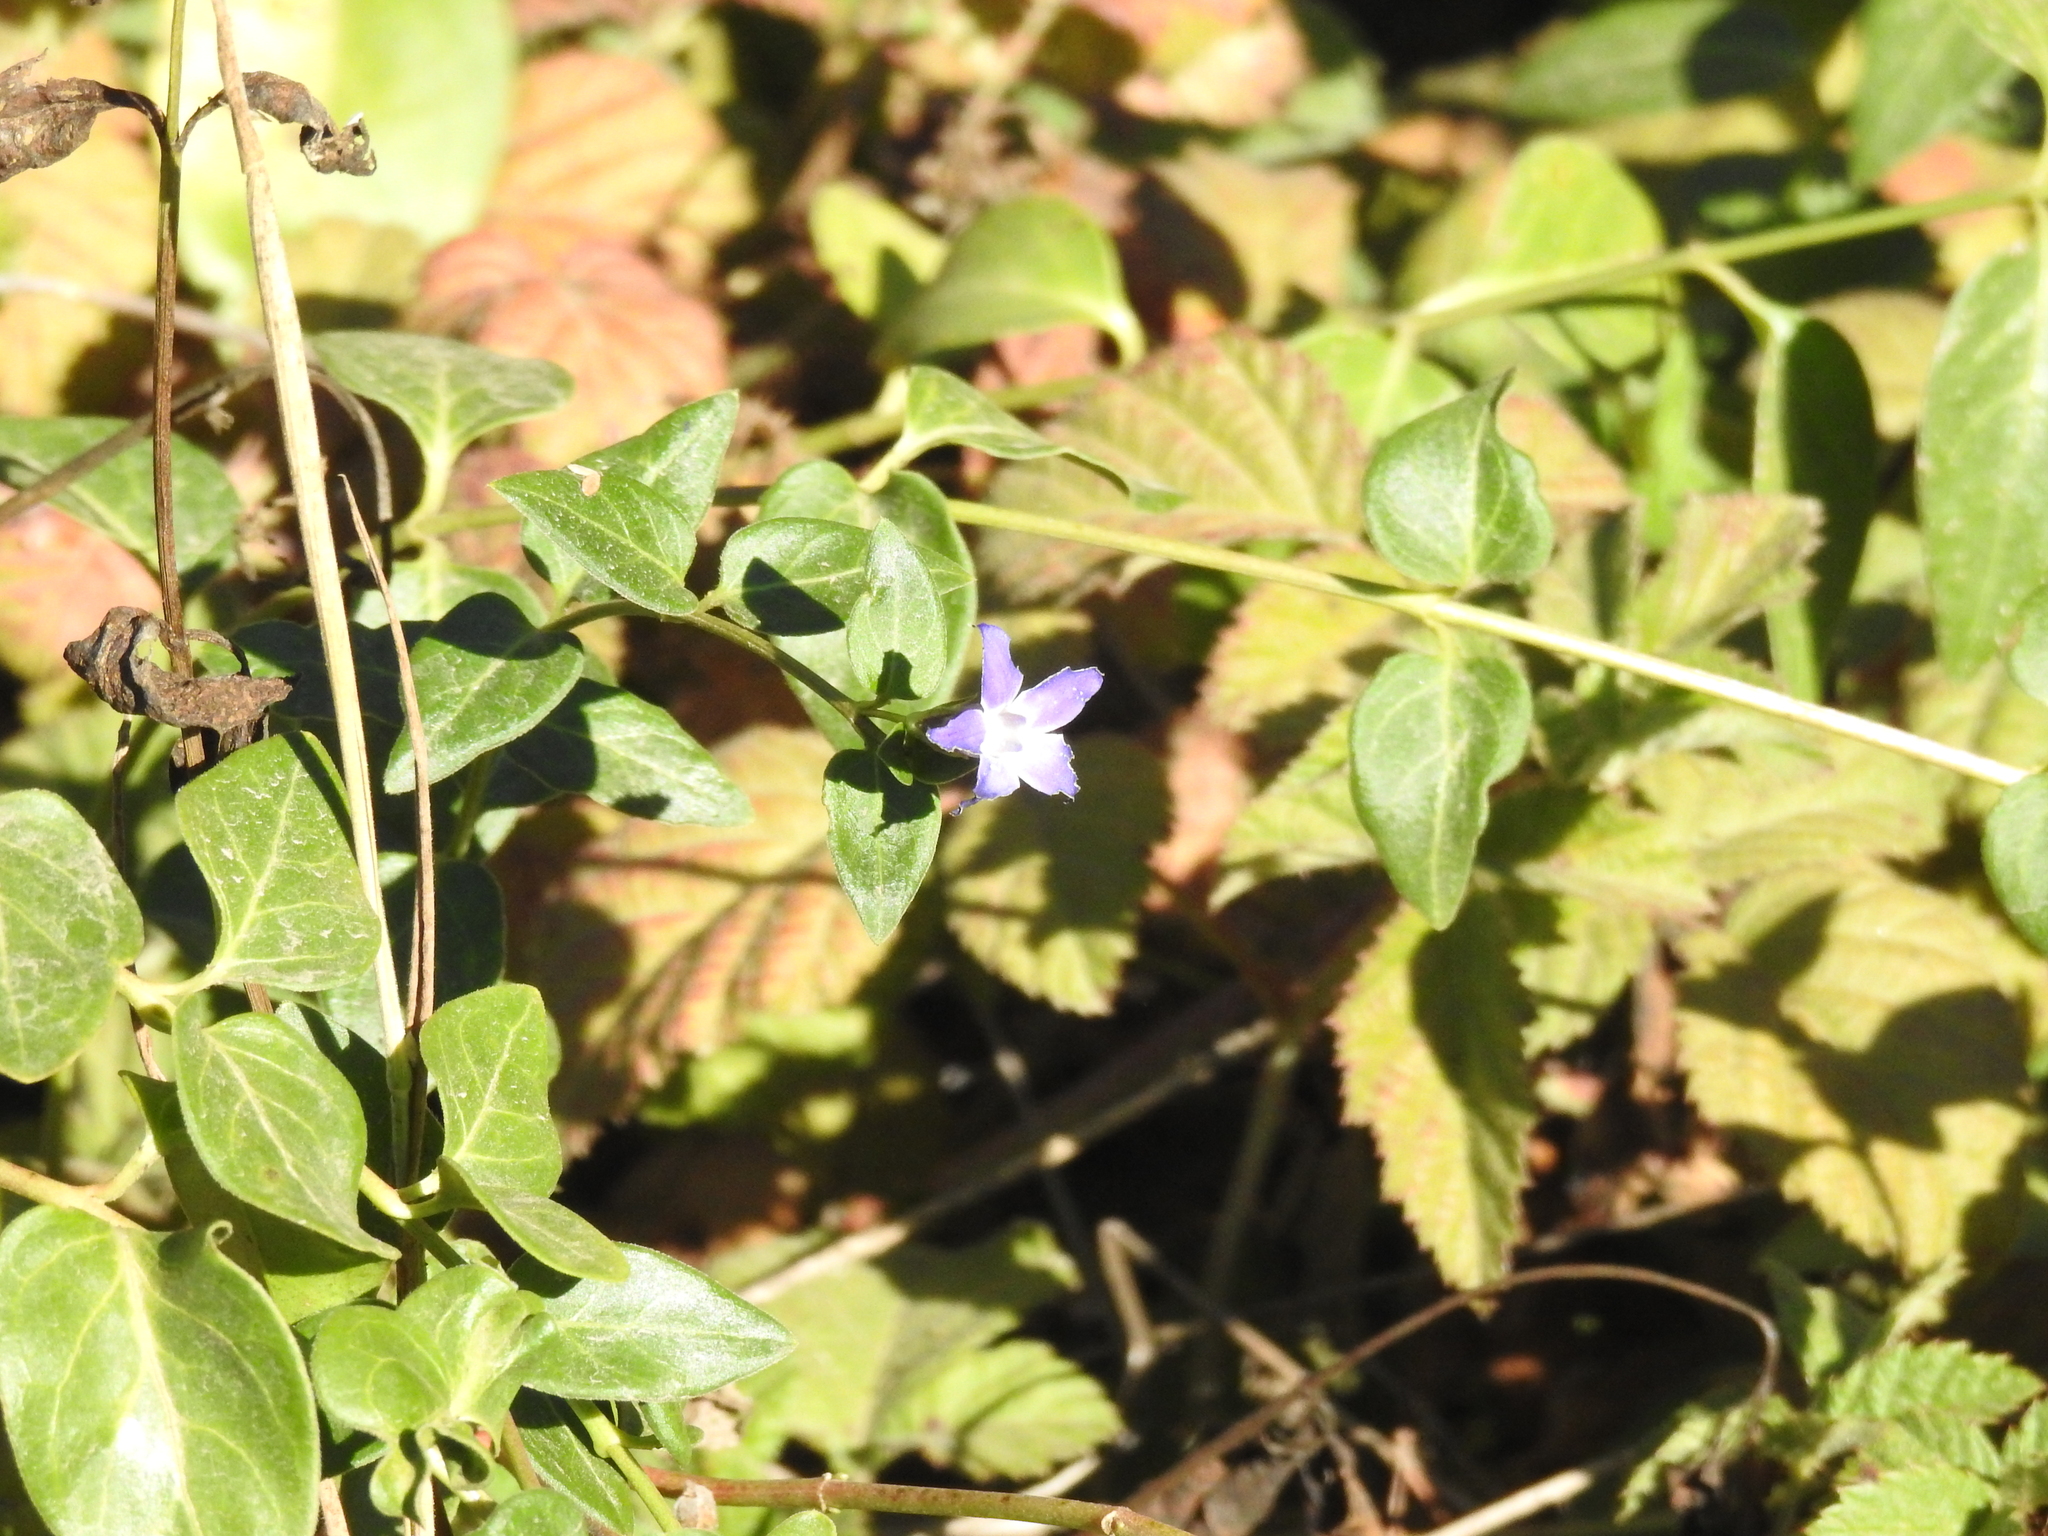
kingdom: Plantae
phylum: Tracheophyta
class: Magnoliopsida
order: Gentianales
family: Apocynaceae
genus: Vinca
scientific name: Vinca major
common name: Greater periwinkle
